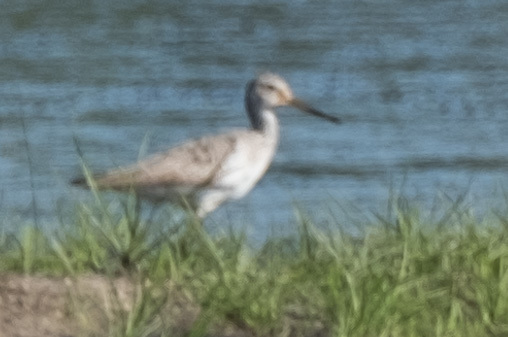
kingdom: Animalia
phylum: Chordata
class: Aves
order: Charadriiformes
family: Scolopacidae
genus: Tringa
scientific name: Tringa melanoleuca
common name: Greater yellowlegs
